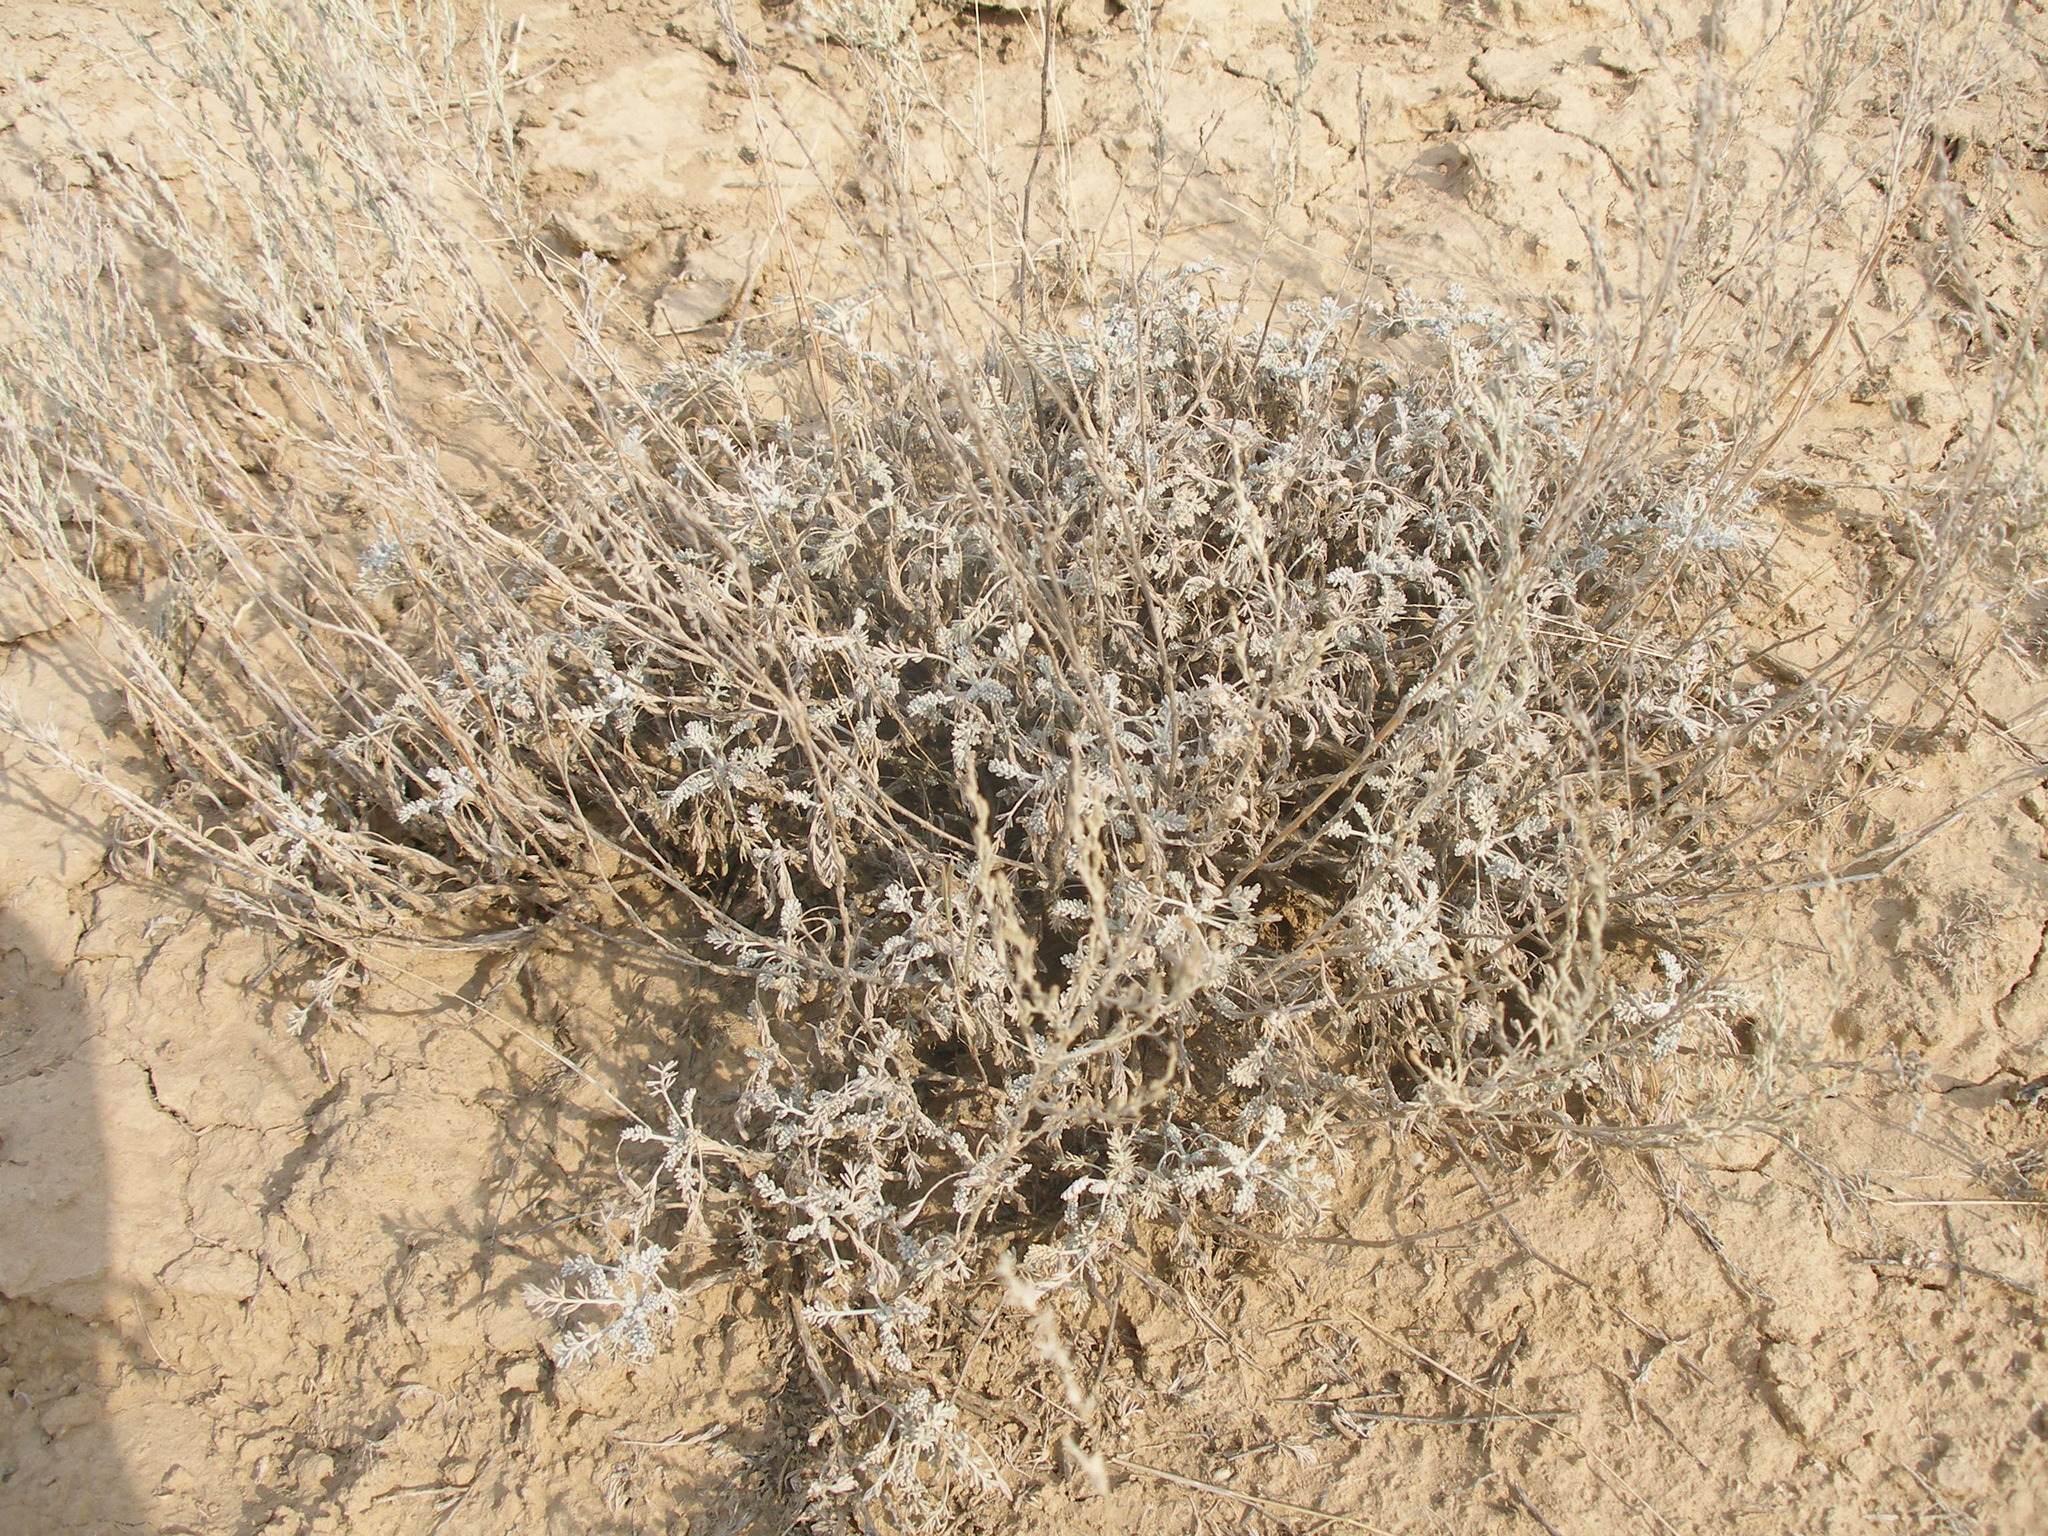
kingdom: Plantae
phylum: Tracheophyta
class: Magnoliopsida
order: Asterales
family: Asteraceae
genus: Artemisia
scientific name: Artemisia lercheana
